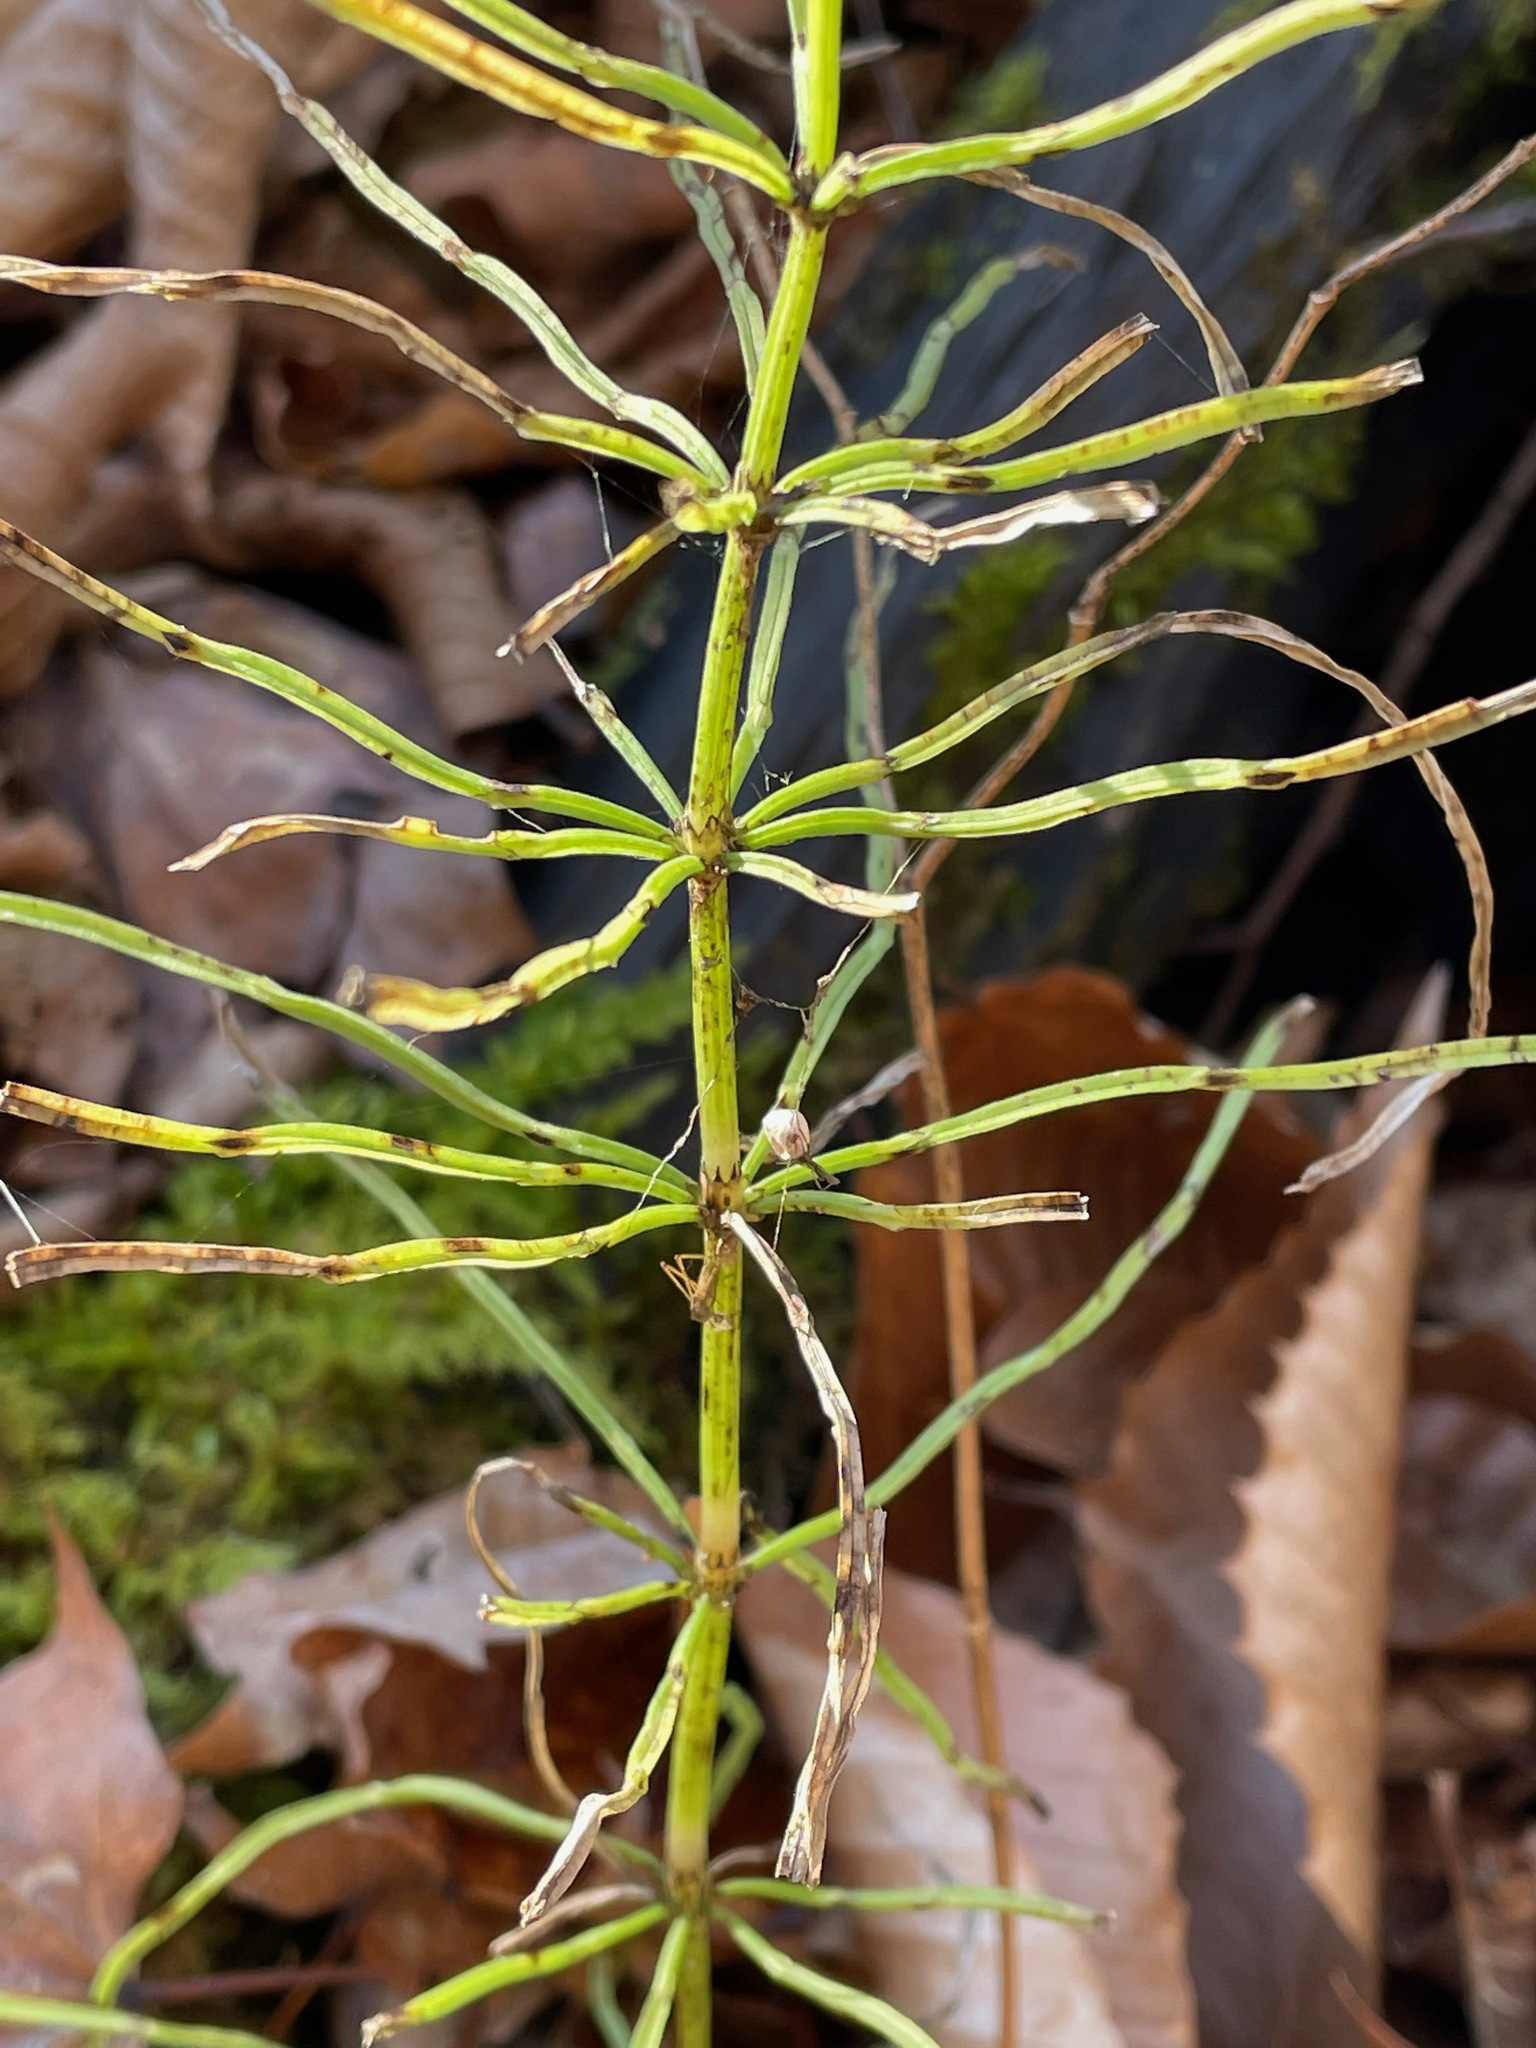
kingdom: Plantae
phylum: Tracheophyta
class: Polypodiopsida
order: Equisetales
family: Equisetaceae
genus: Equisetum
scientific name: Equisetum arvense
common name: Field horsetail
